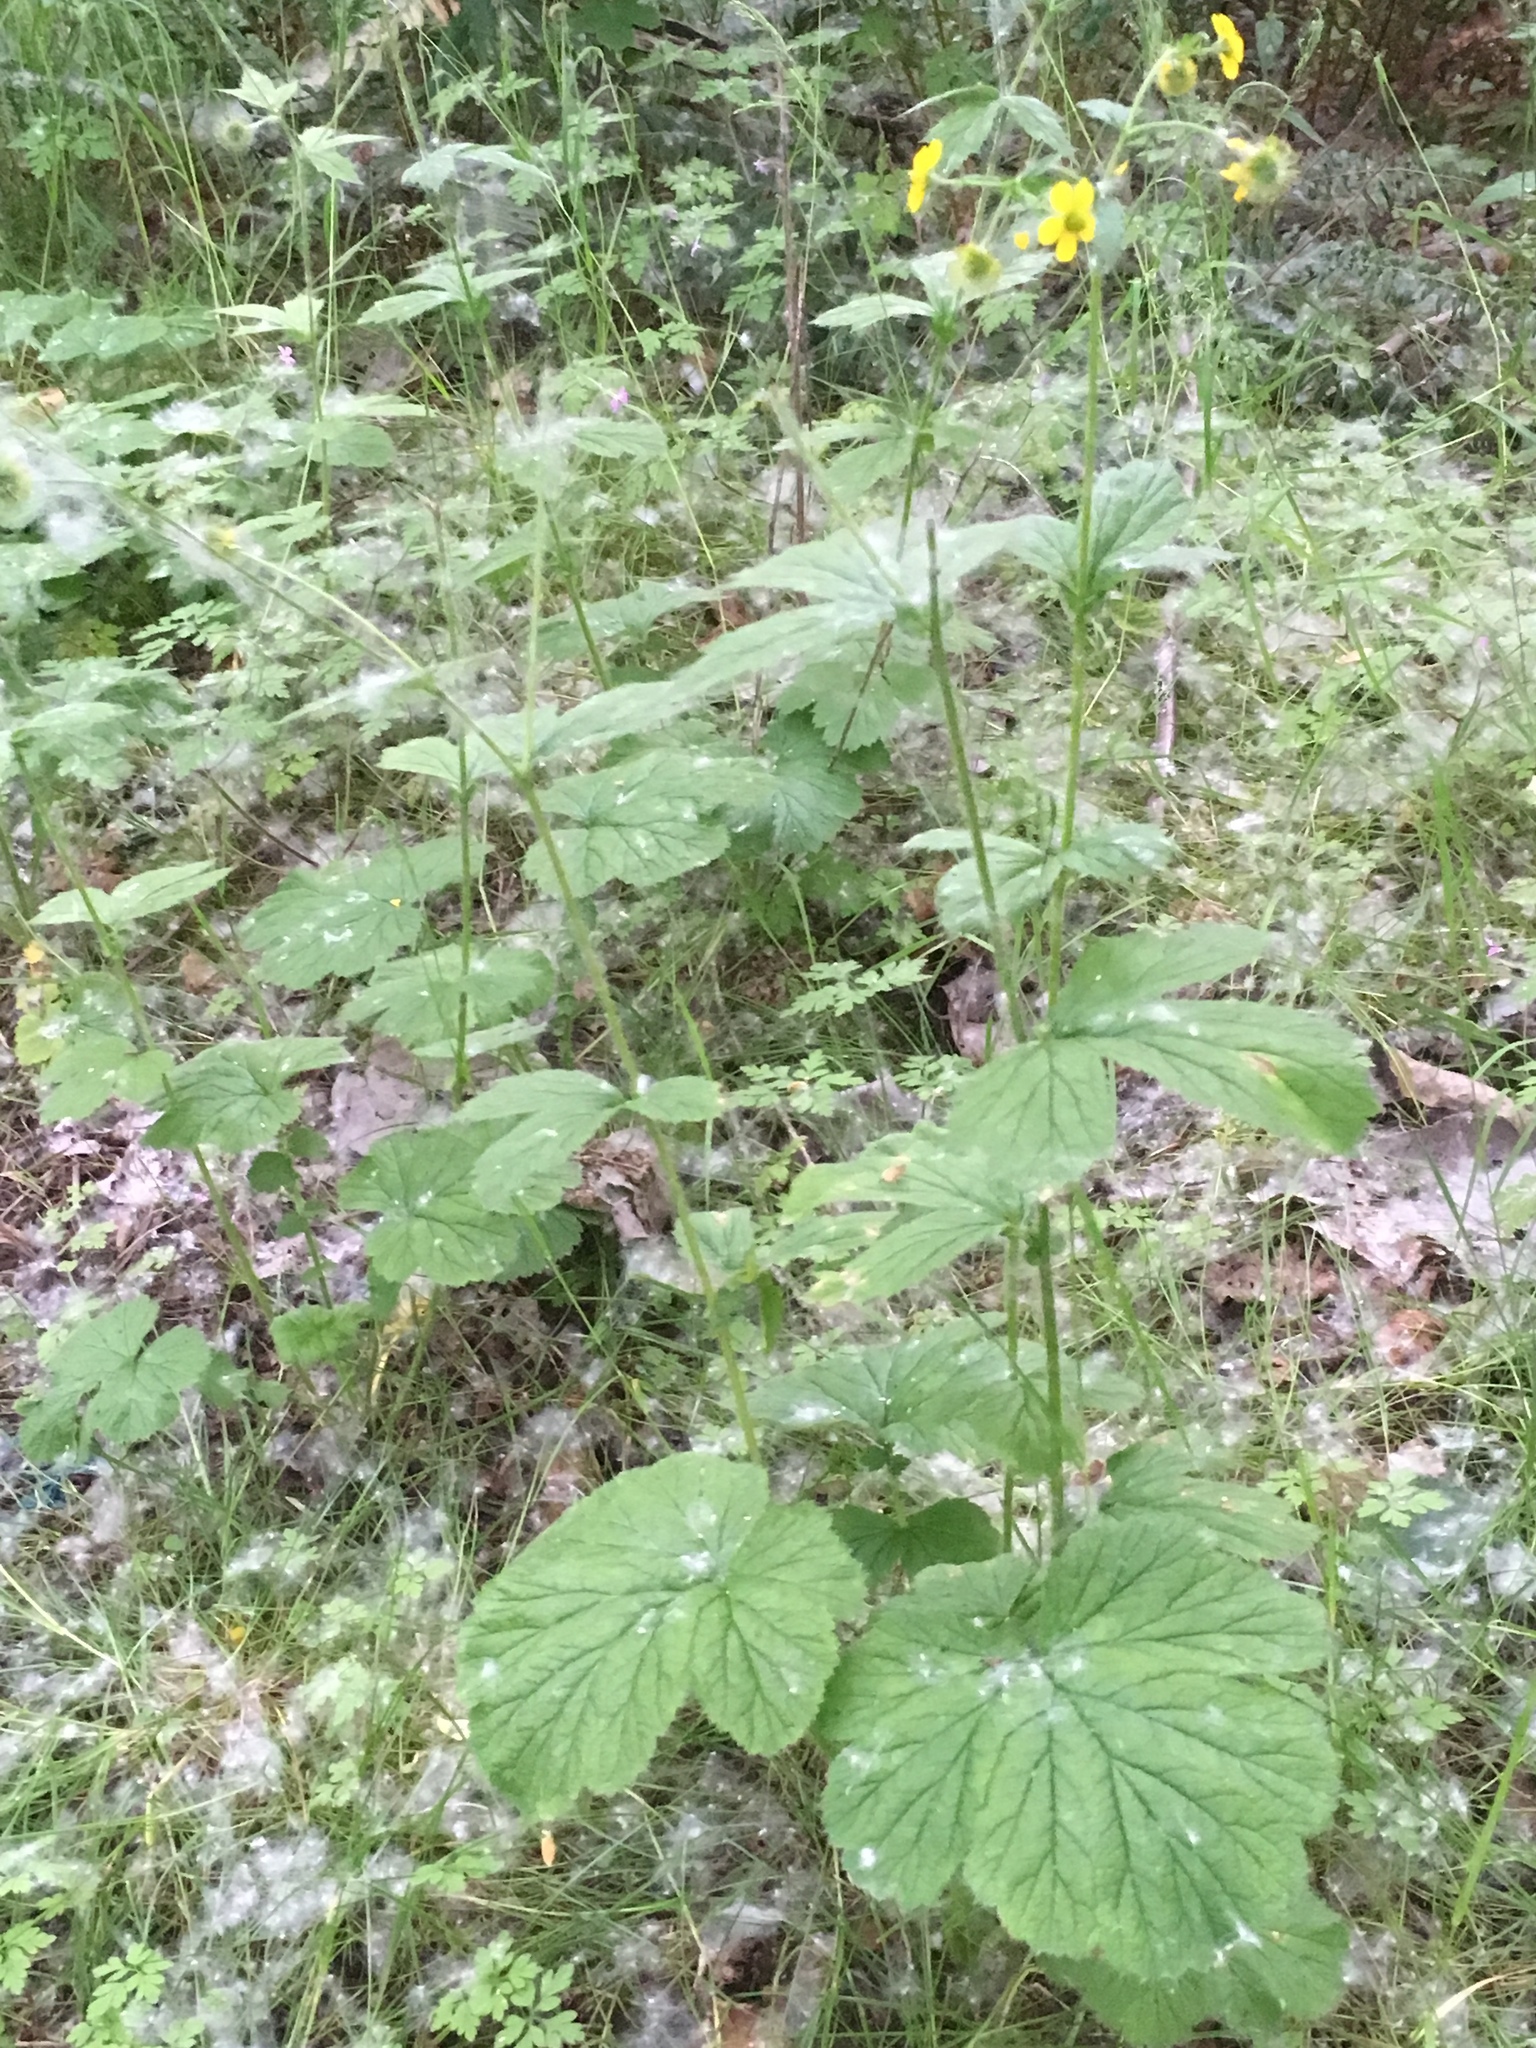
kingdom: Plantae
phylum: Tracheophyta
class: Magnoliopsida
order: Rosales
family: Rosaceae
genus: Geum
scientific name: Geum macrophyllum
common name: Large-leaved avens
